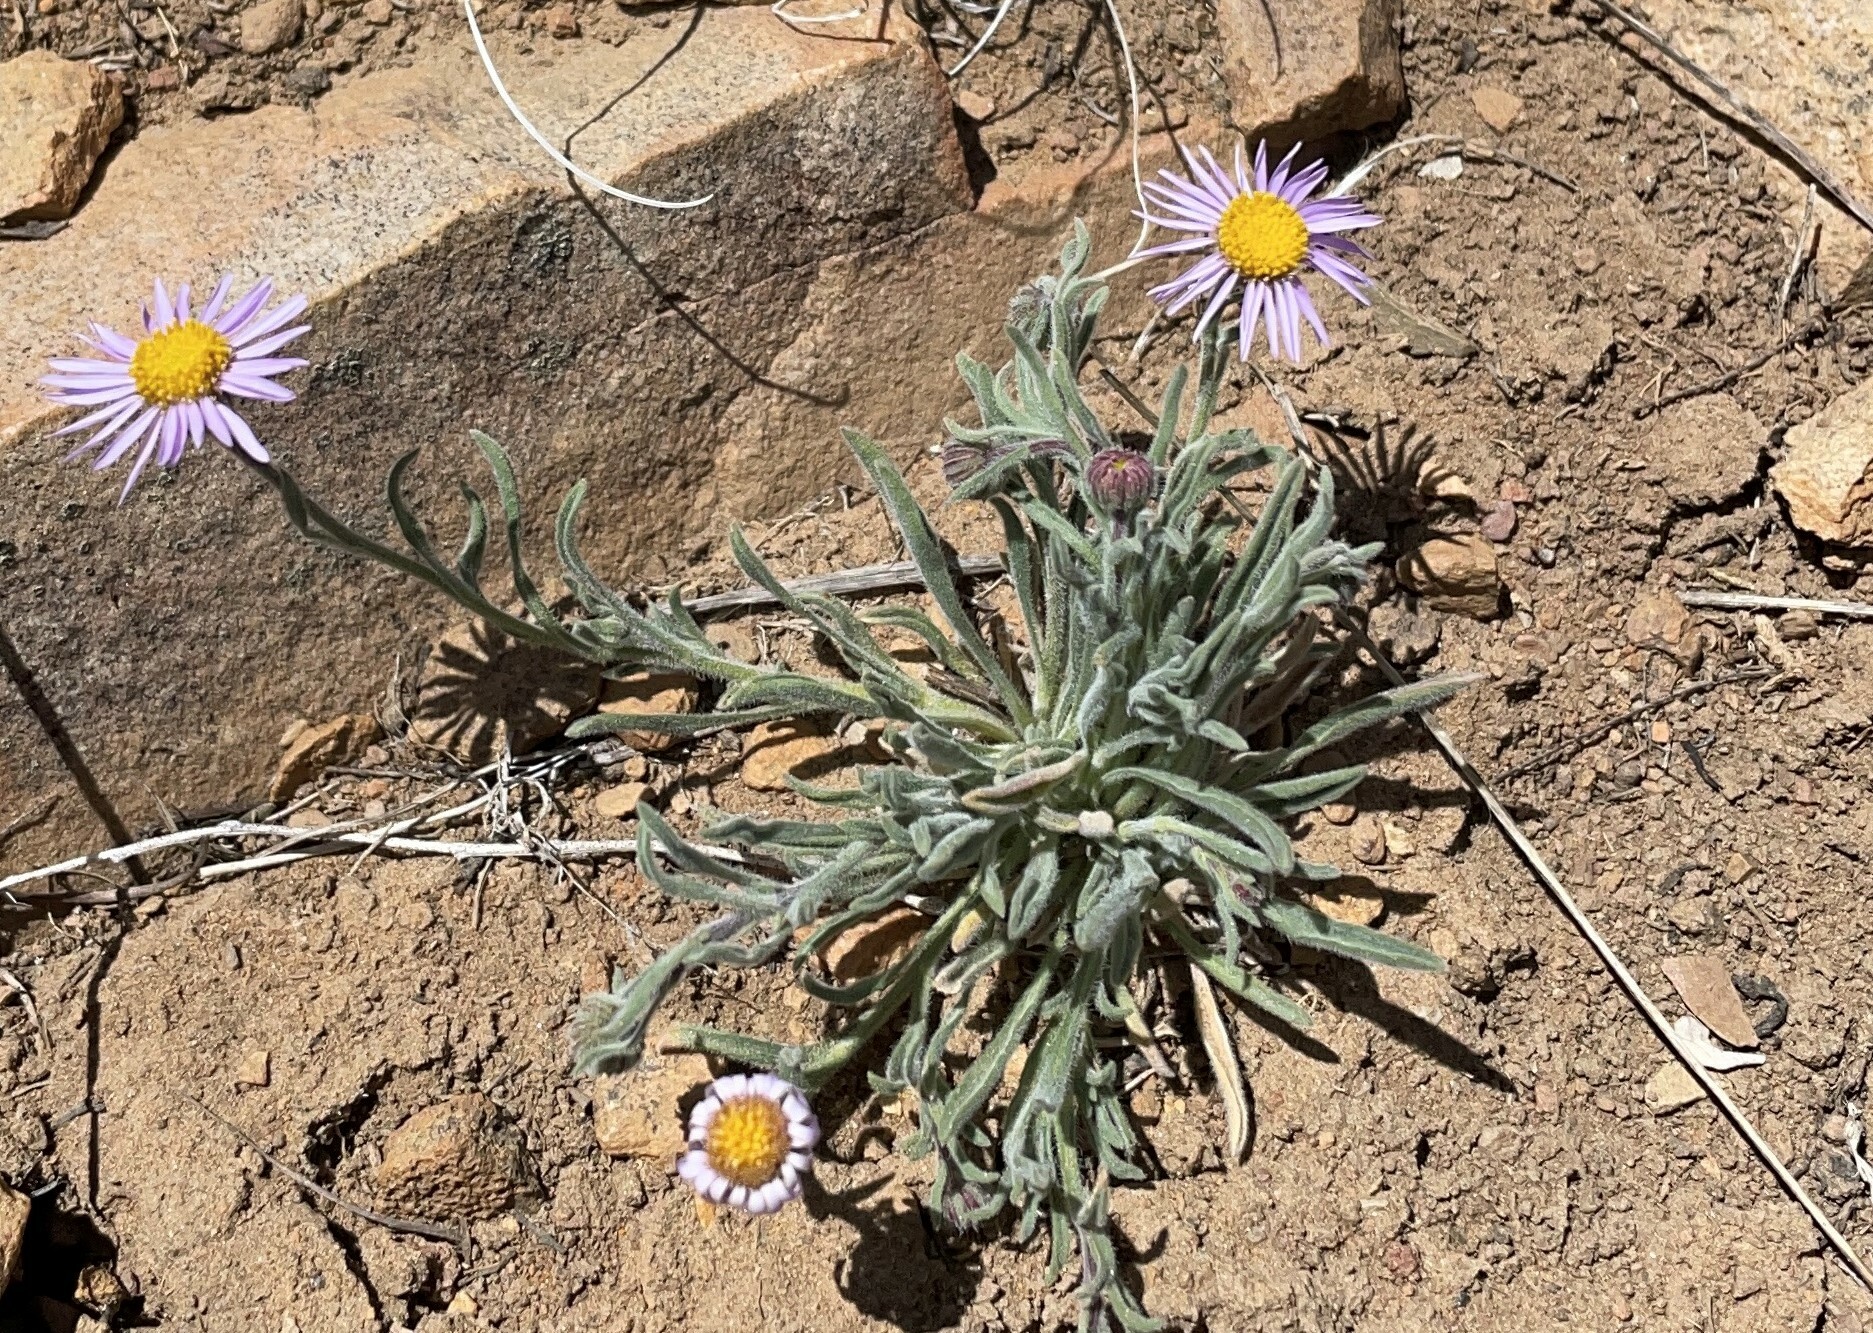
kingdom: Plantae
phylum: Tracheophyta
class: Magnoliopsida
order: Asterales
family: Asteraceae
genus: Erigeron
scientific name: Erigeron clokeyi
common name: Clokey's fleabane
